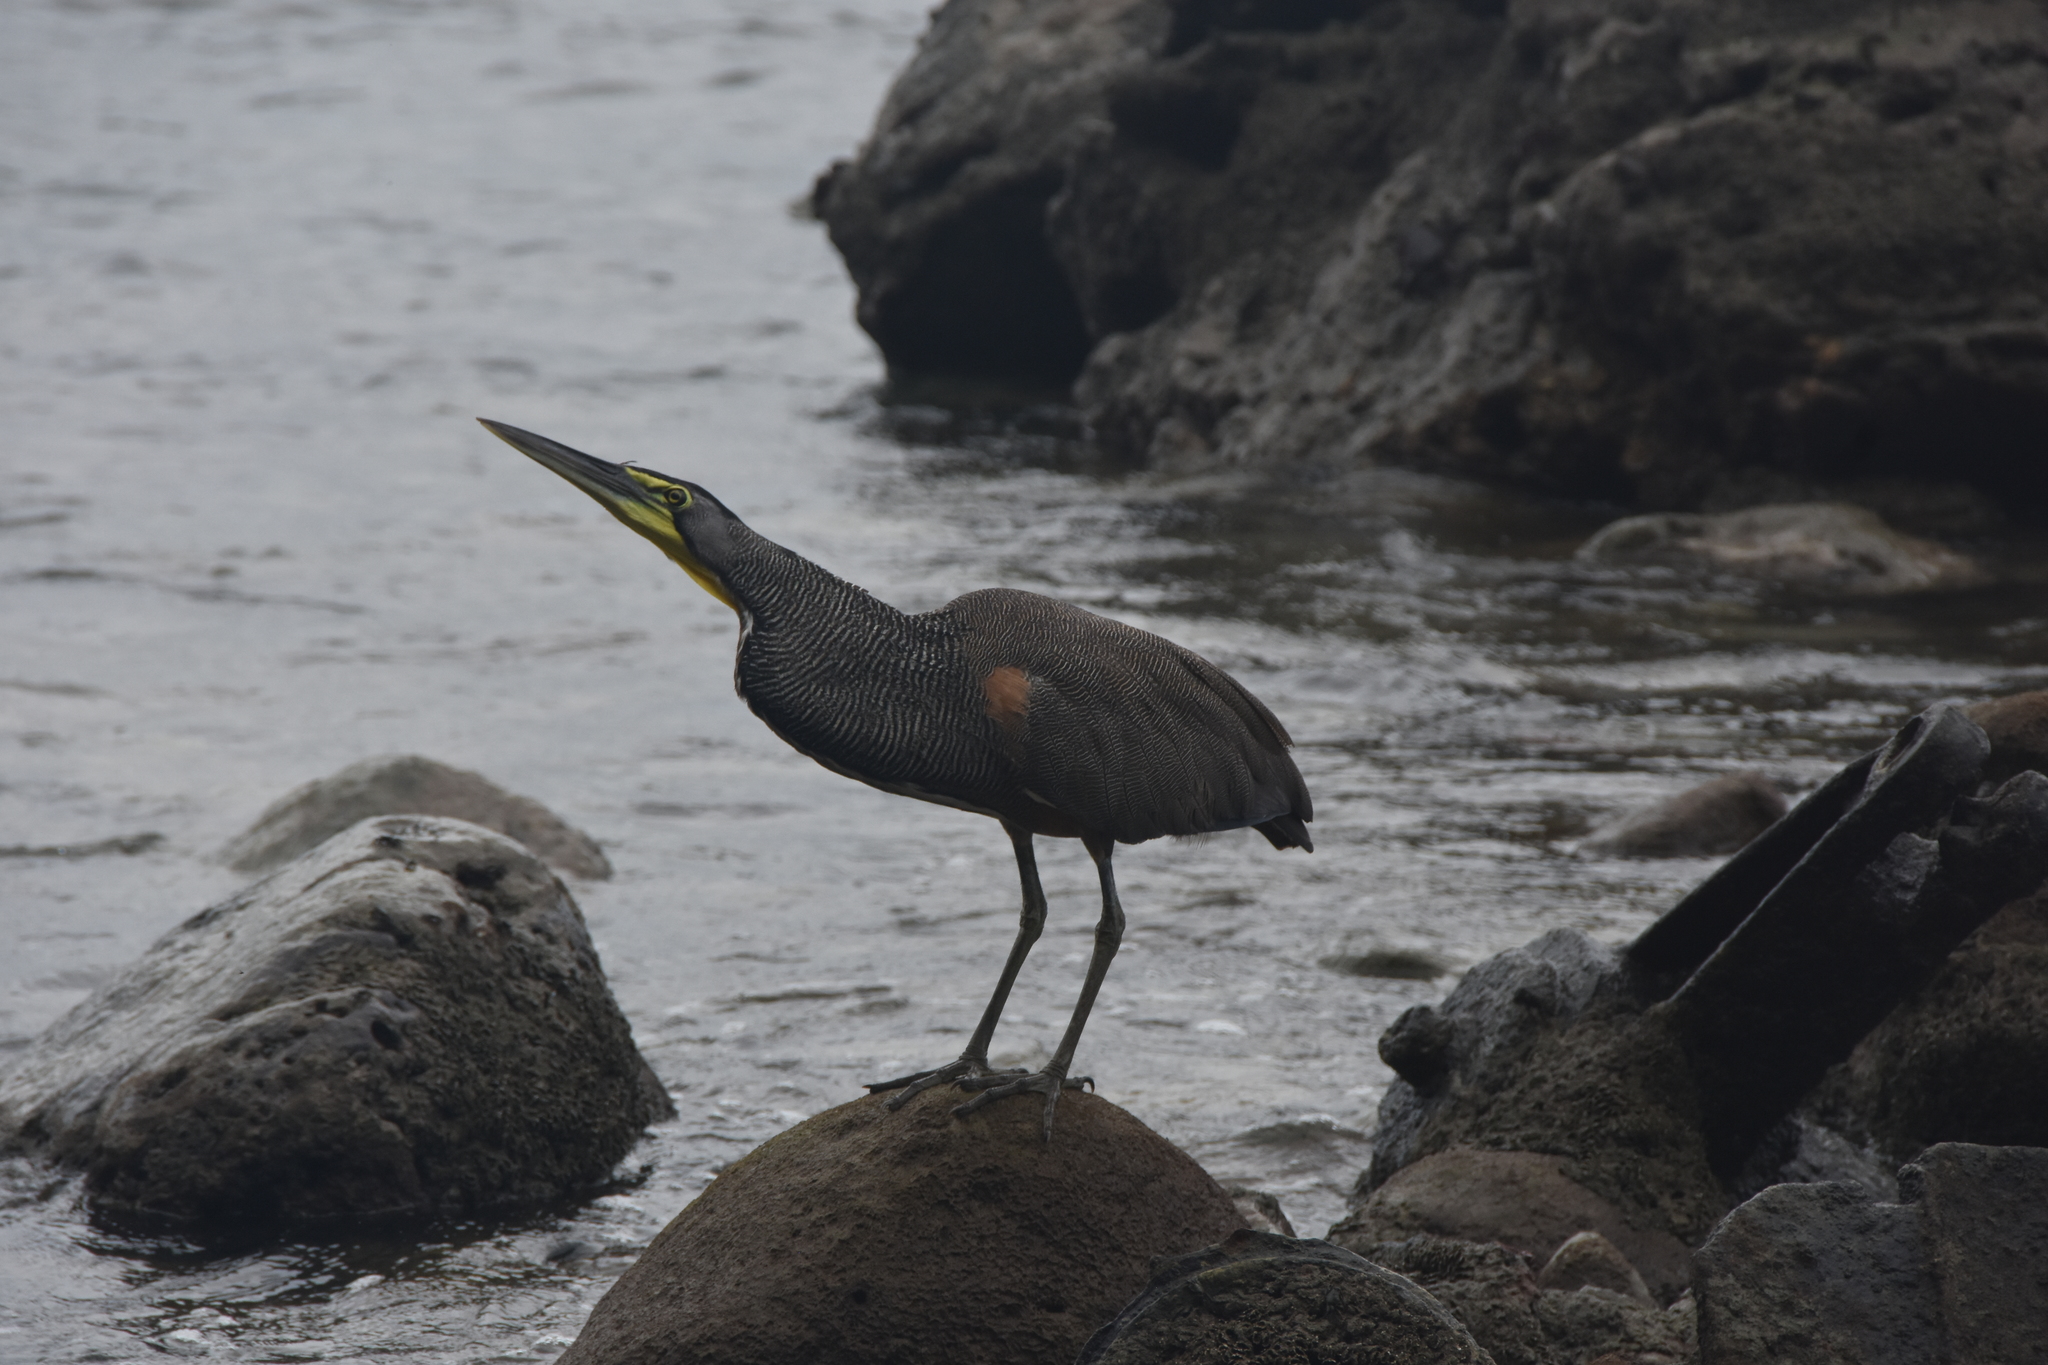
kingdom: Animalia
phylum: Chordata
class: Aves
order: Pelecaniformes
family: Ardeidae
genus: Tigrisoma
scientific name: Tigrisoma mexicanum
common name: Bare-throated tiger-heron
